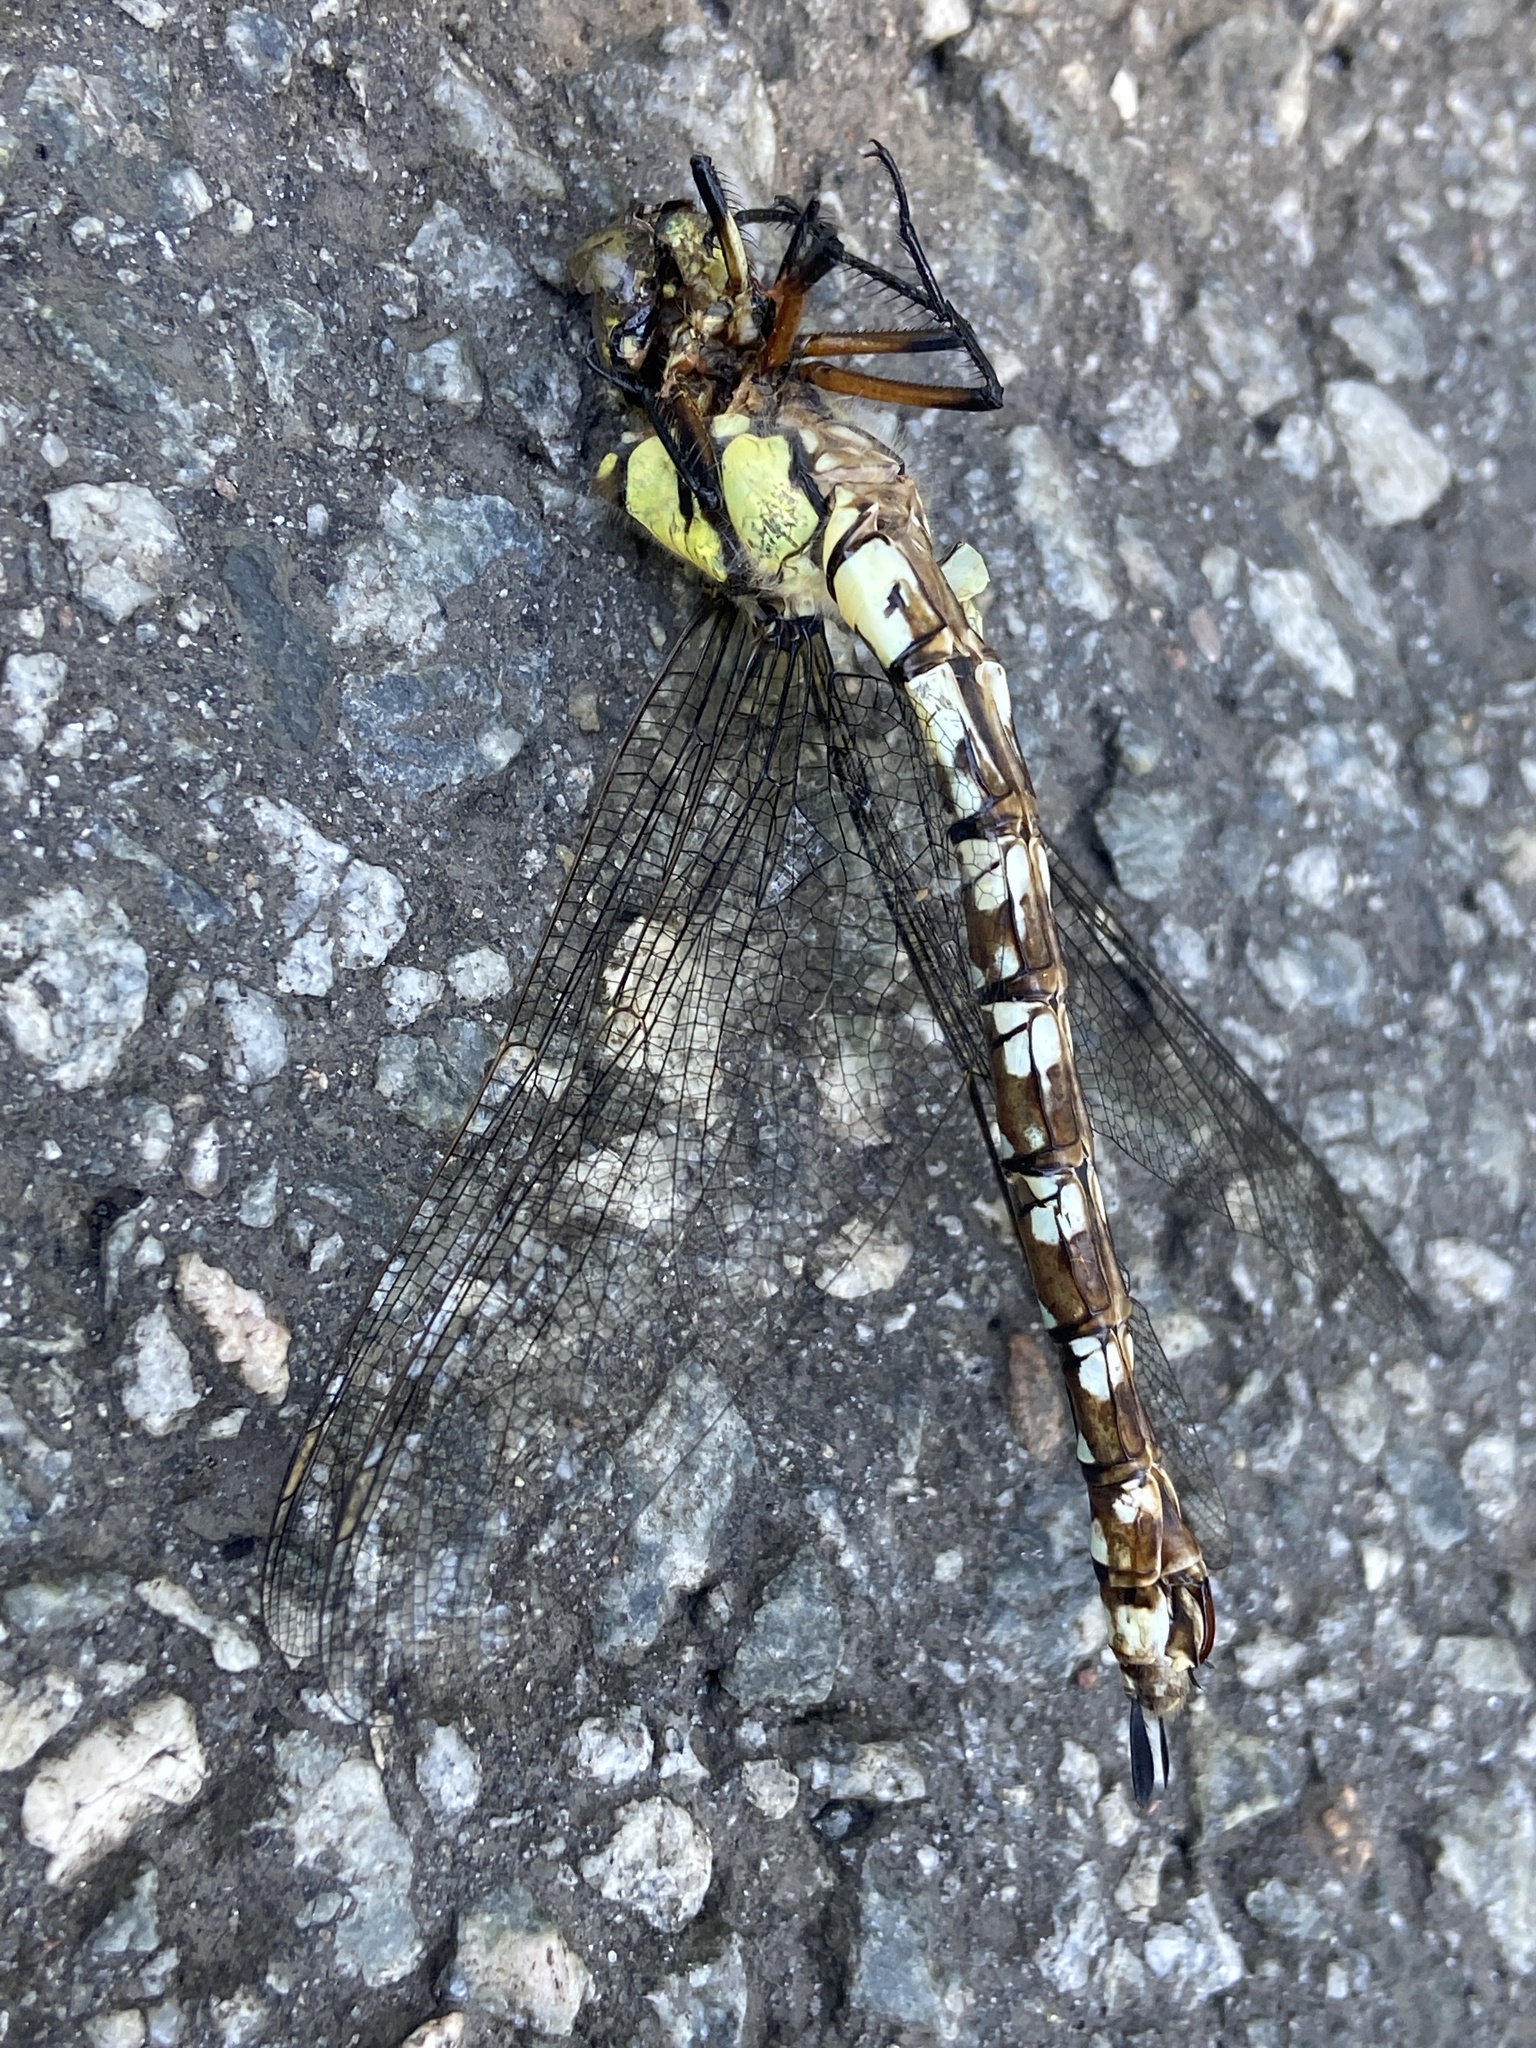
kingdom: Animalia
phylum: Arthropoda
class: Insecta
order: Odonata
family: Aeshnidae
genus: Aeshna
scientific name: Aeshna cyanea
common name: Southern hawker
